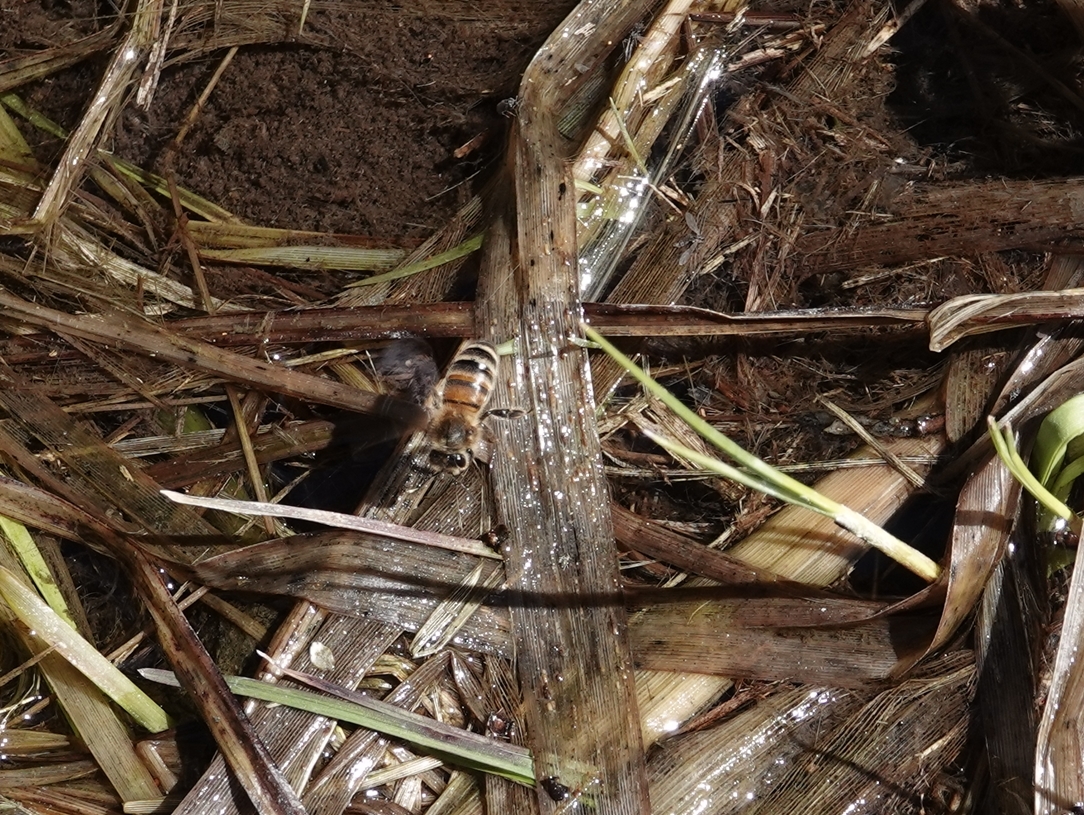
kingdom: Animalia
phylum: Arthropoda
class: Insecta
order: Hymenoptera
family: Apidae
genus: Apis
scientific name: Apis mellifera
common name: Honey bee
